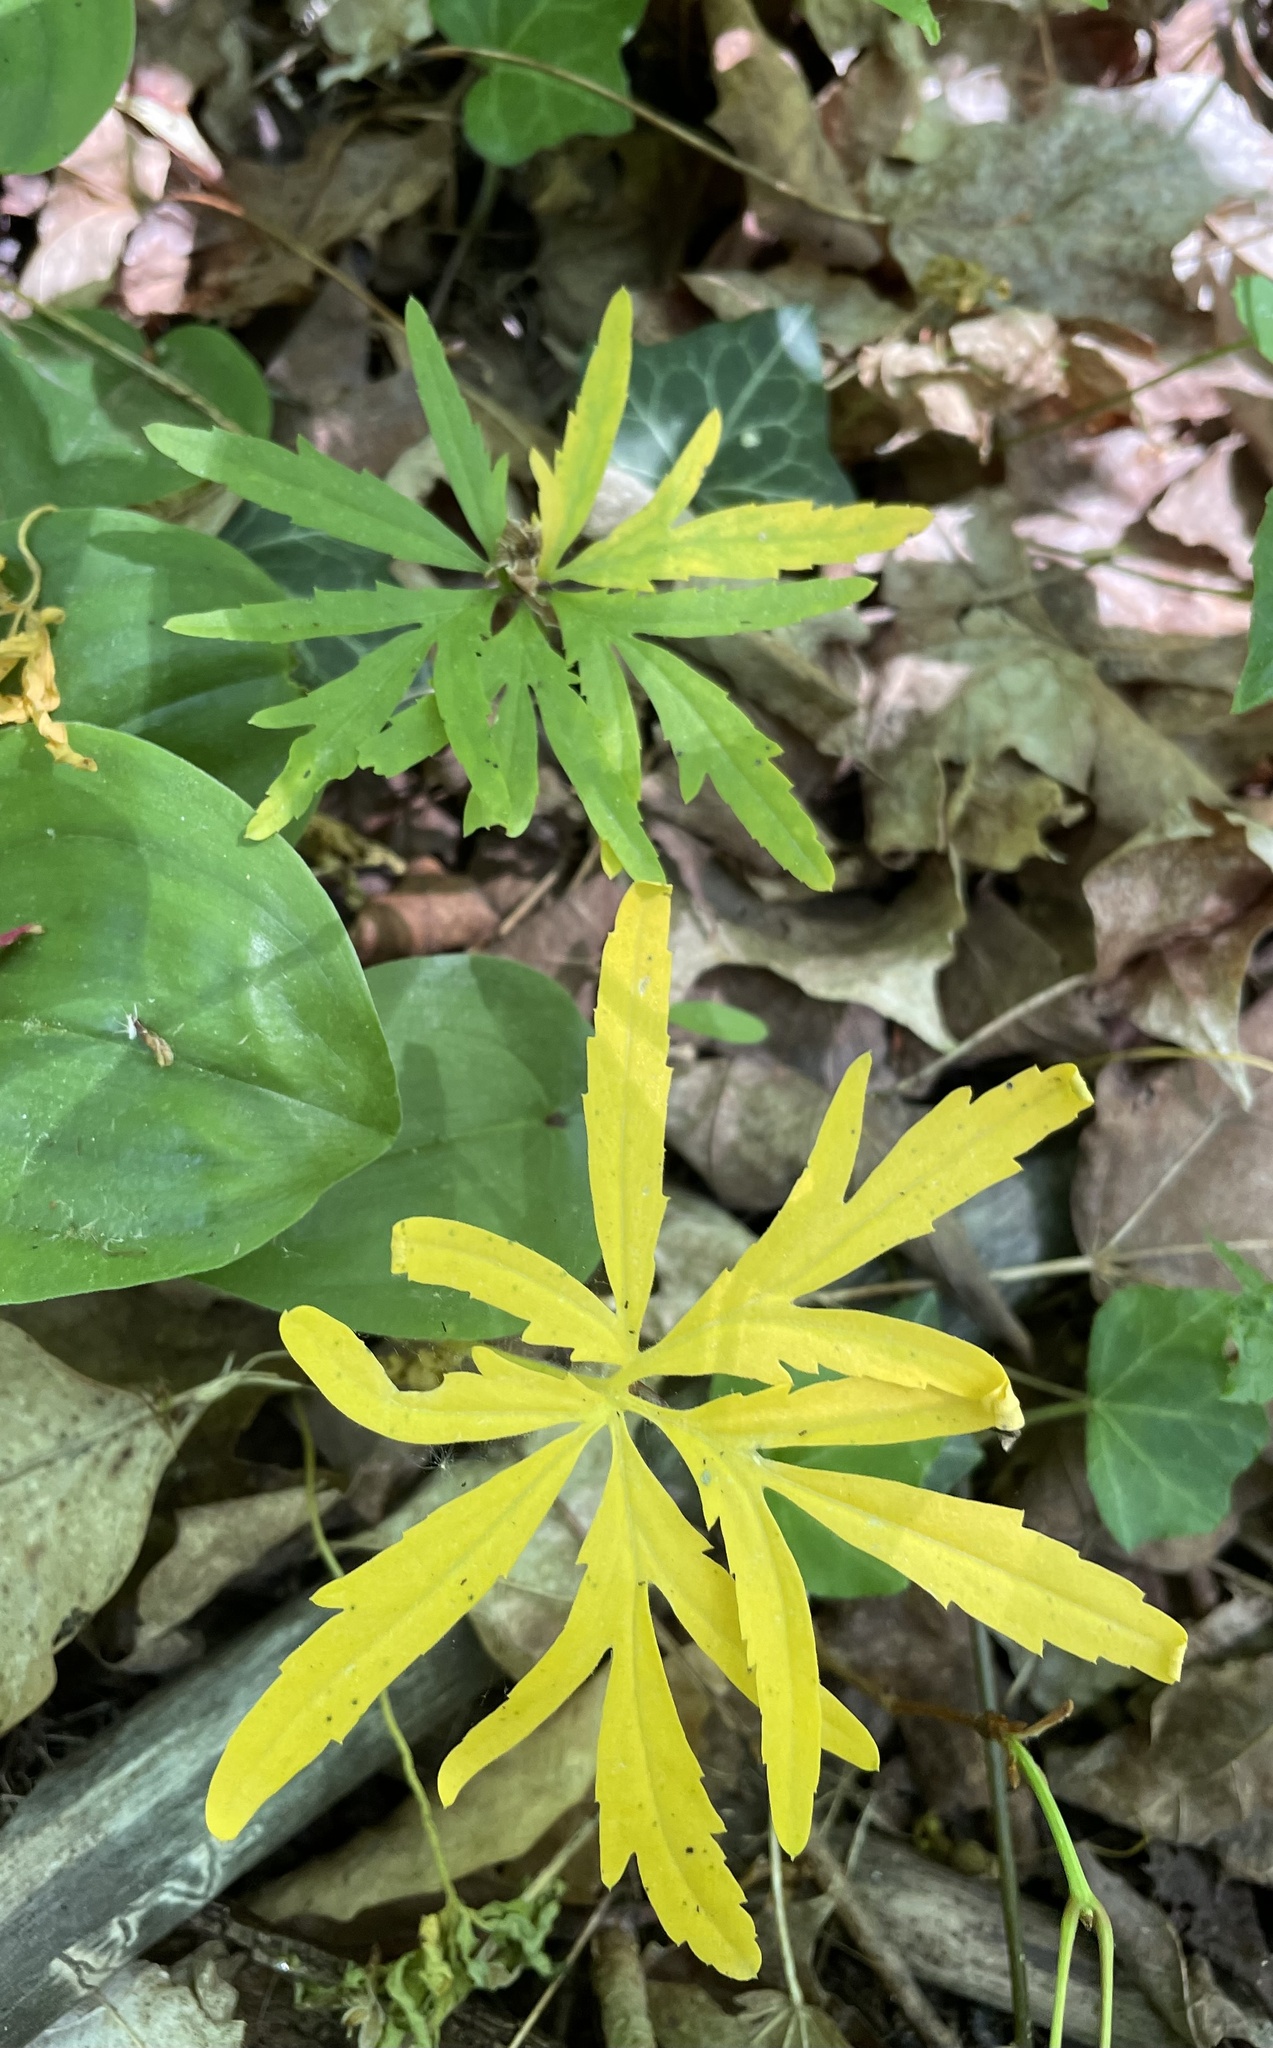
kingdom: Plantae
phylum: Tracheophyta
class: Magnoliopsida
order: Brassicales
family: Brassicaceae
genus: Cardamine
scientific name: Cardamine concatenata
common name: Cut-leaf toothcup
